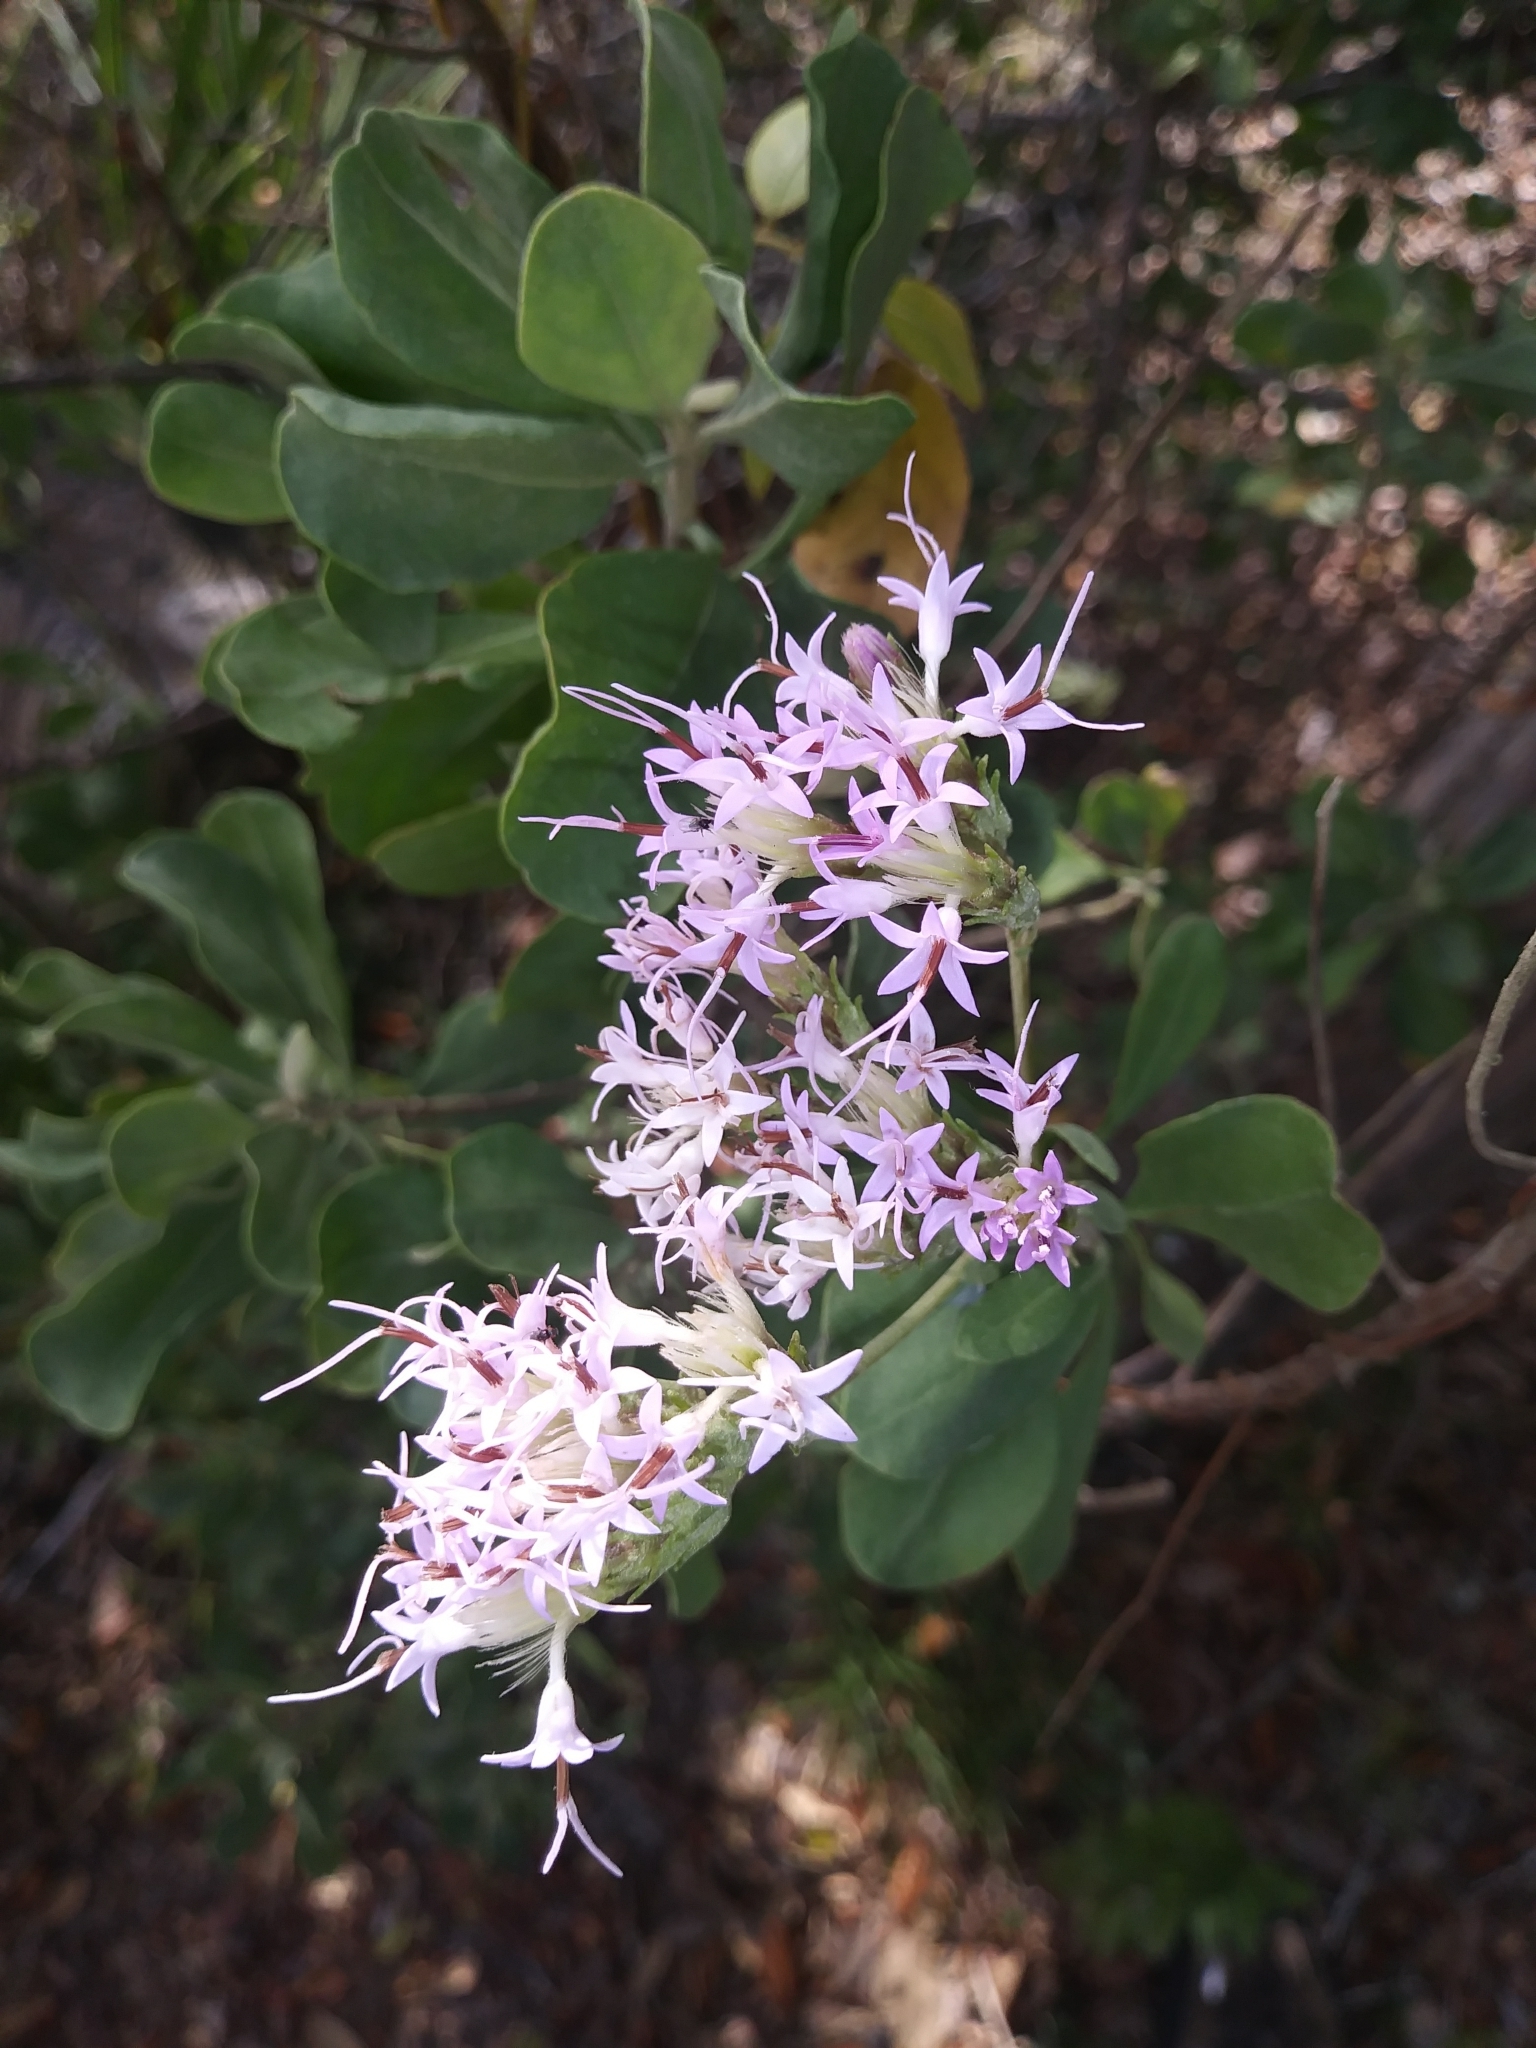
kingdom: Plantae
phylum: Tracheophyta
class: Magnoliopsida
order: Asterales
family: Asteraceae
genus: Garberia
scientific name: Garberia heterophylla
